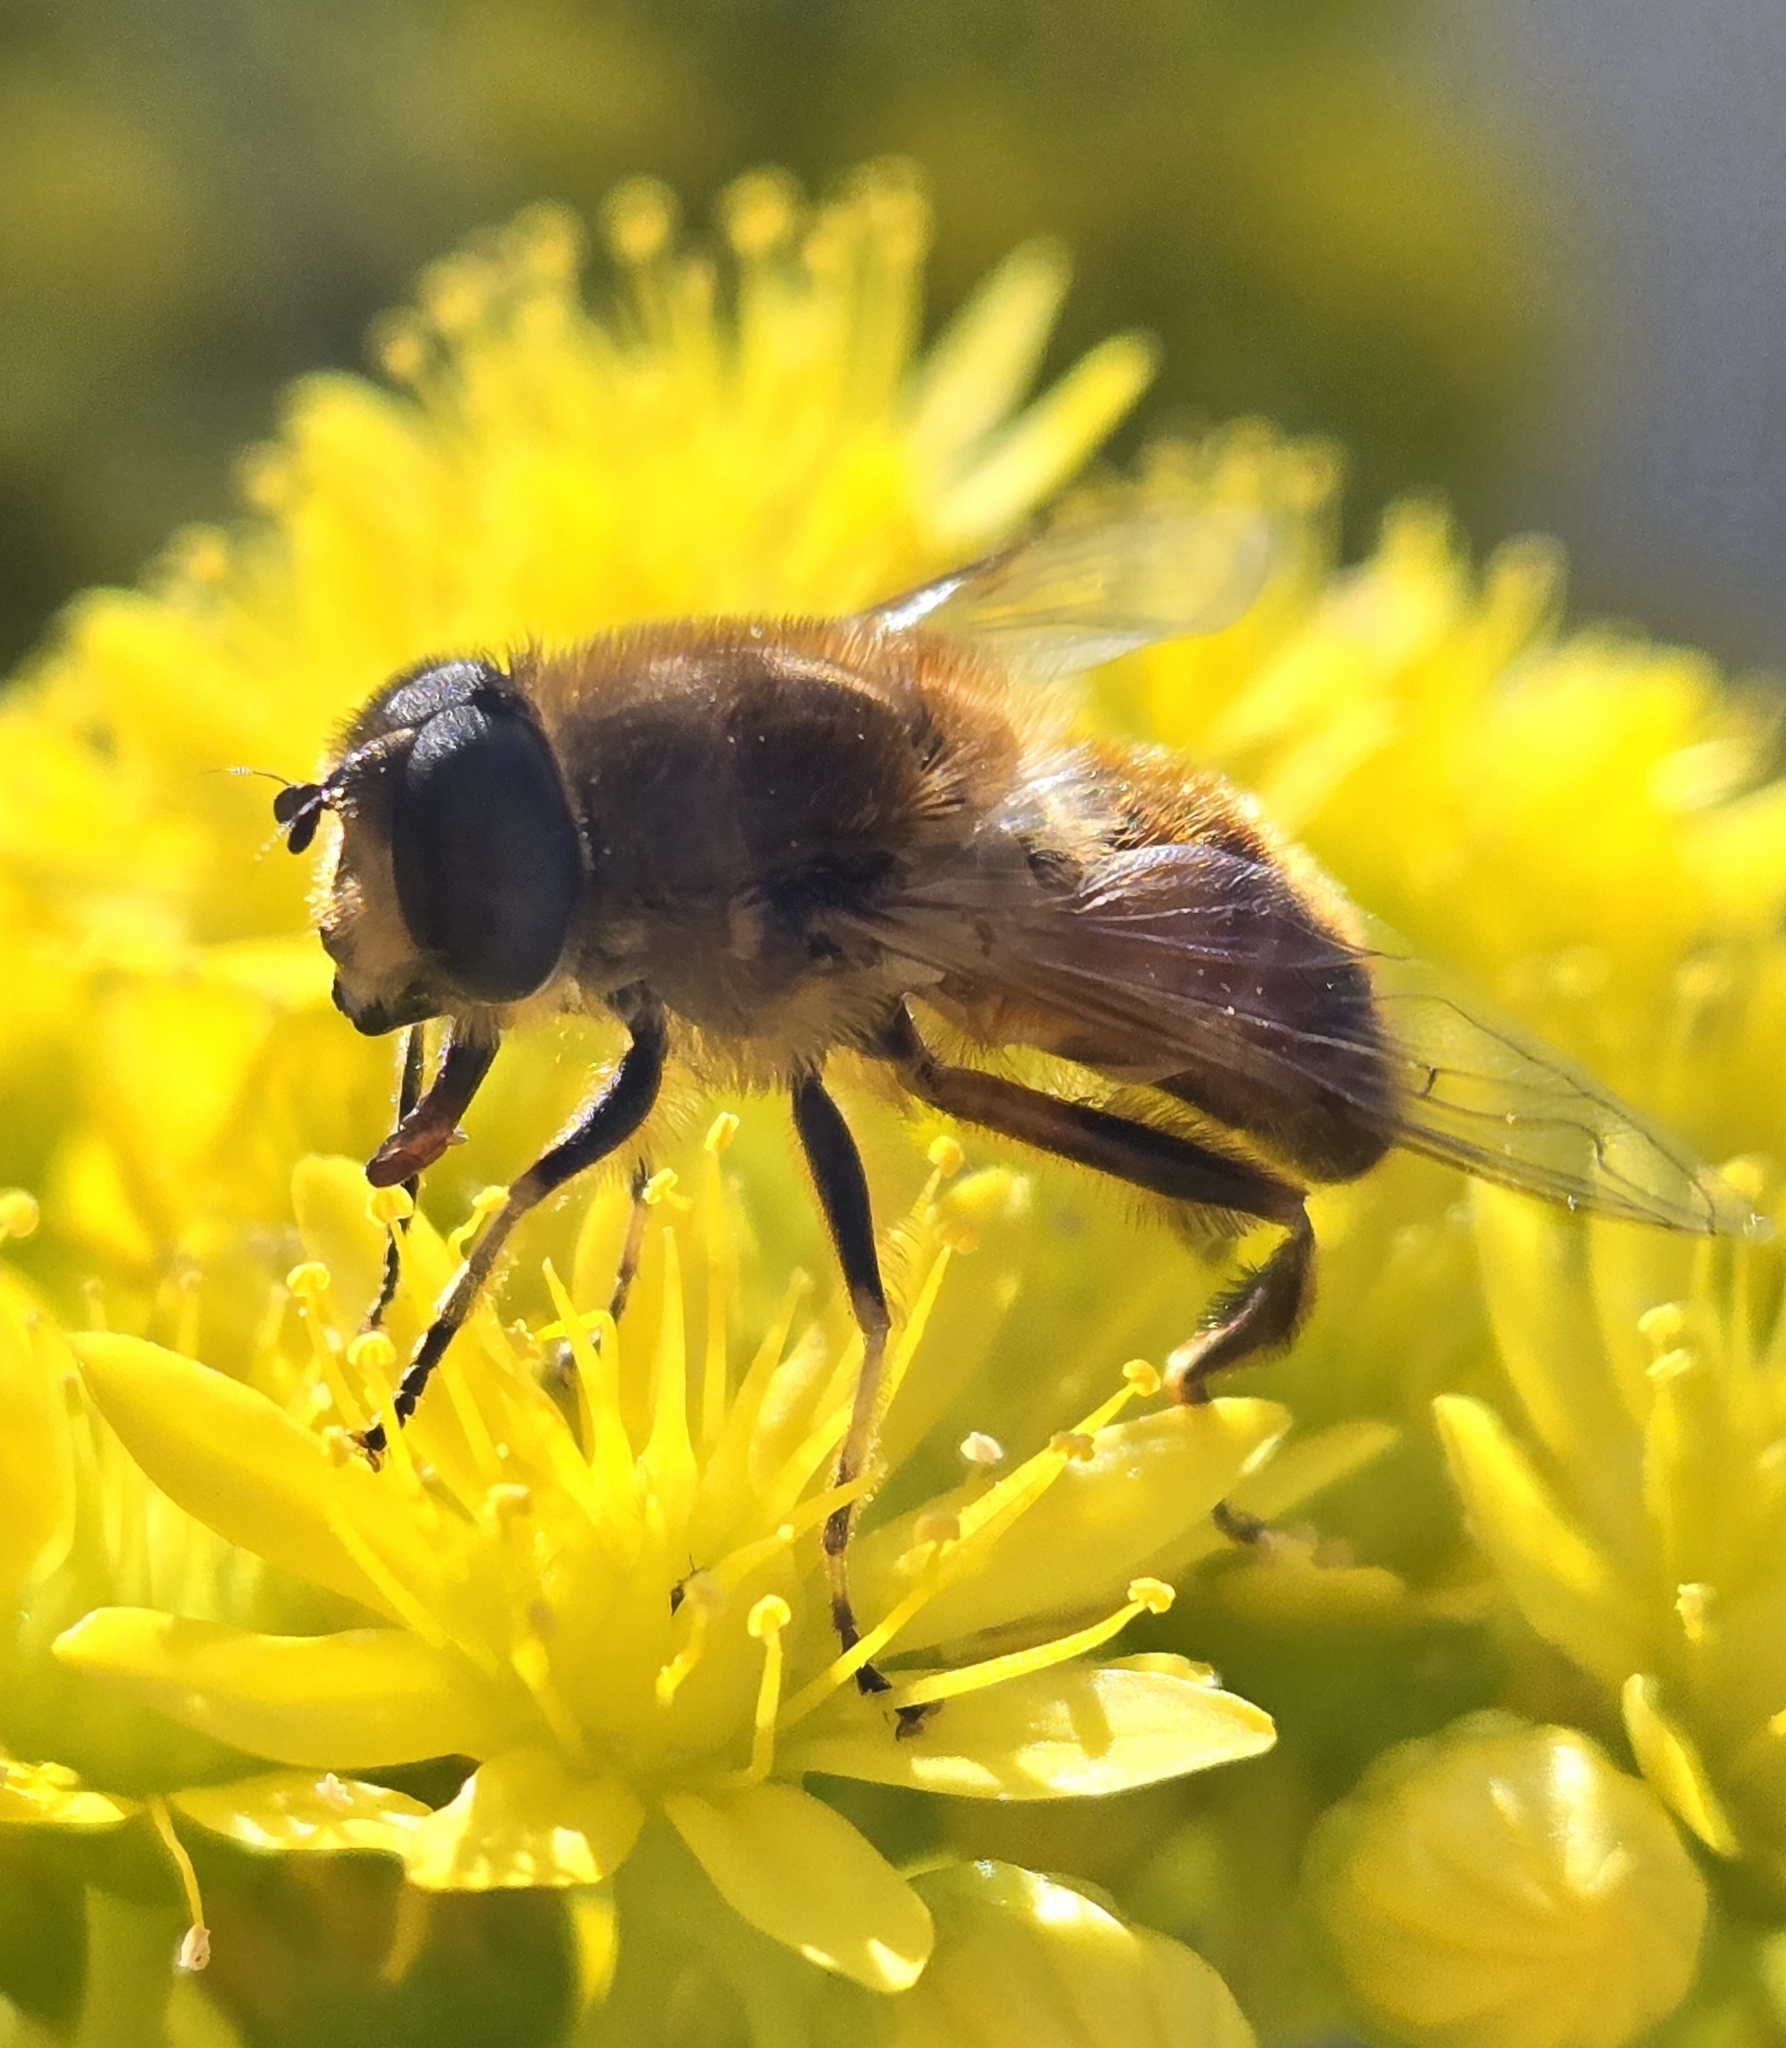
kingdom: Animalia
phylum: Arthropoda
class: Insecta
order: Diptera
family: Syrphidae
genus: Eristalis
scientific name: Eristalis tenax
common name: Drone fly
